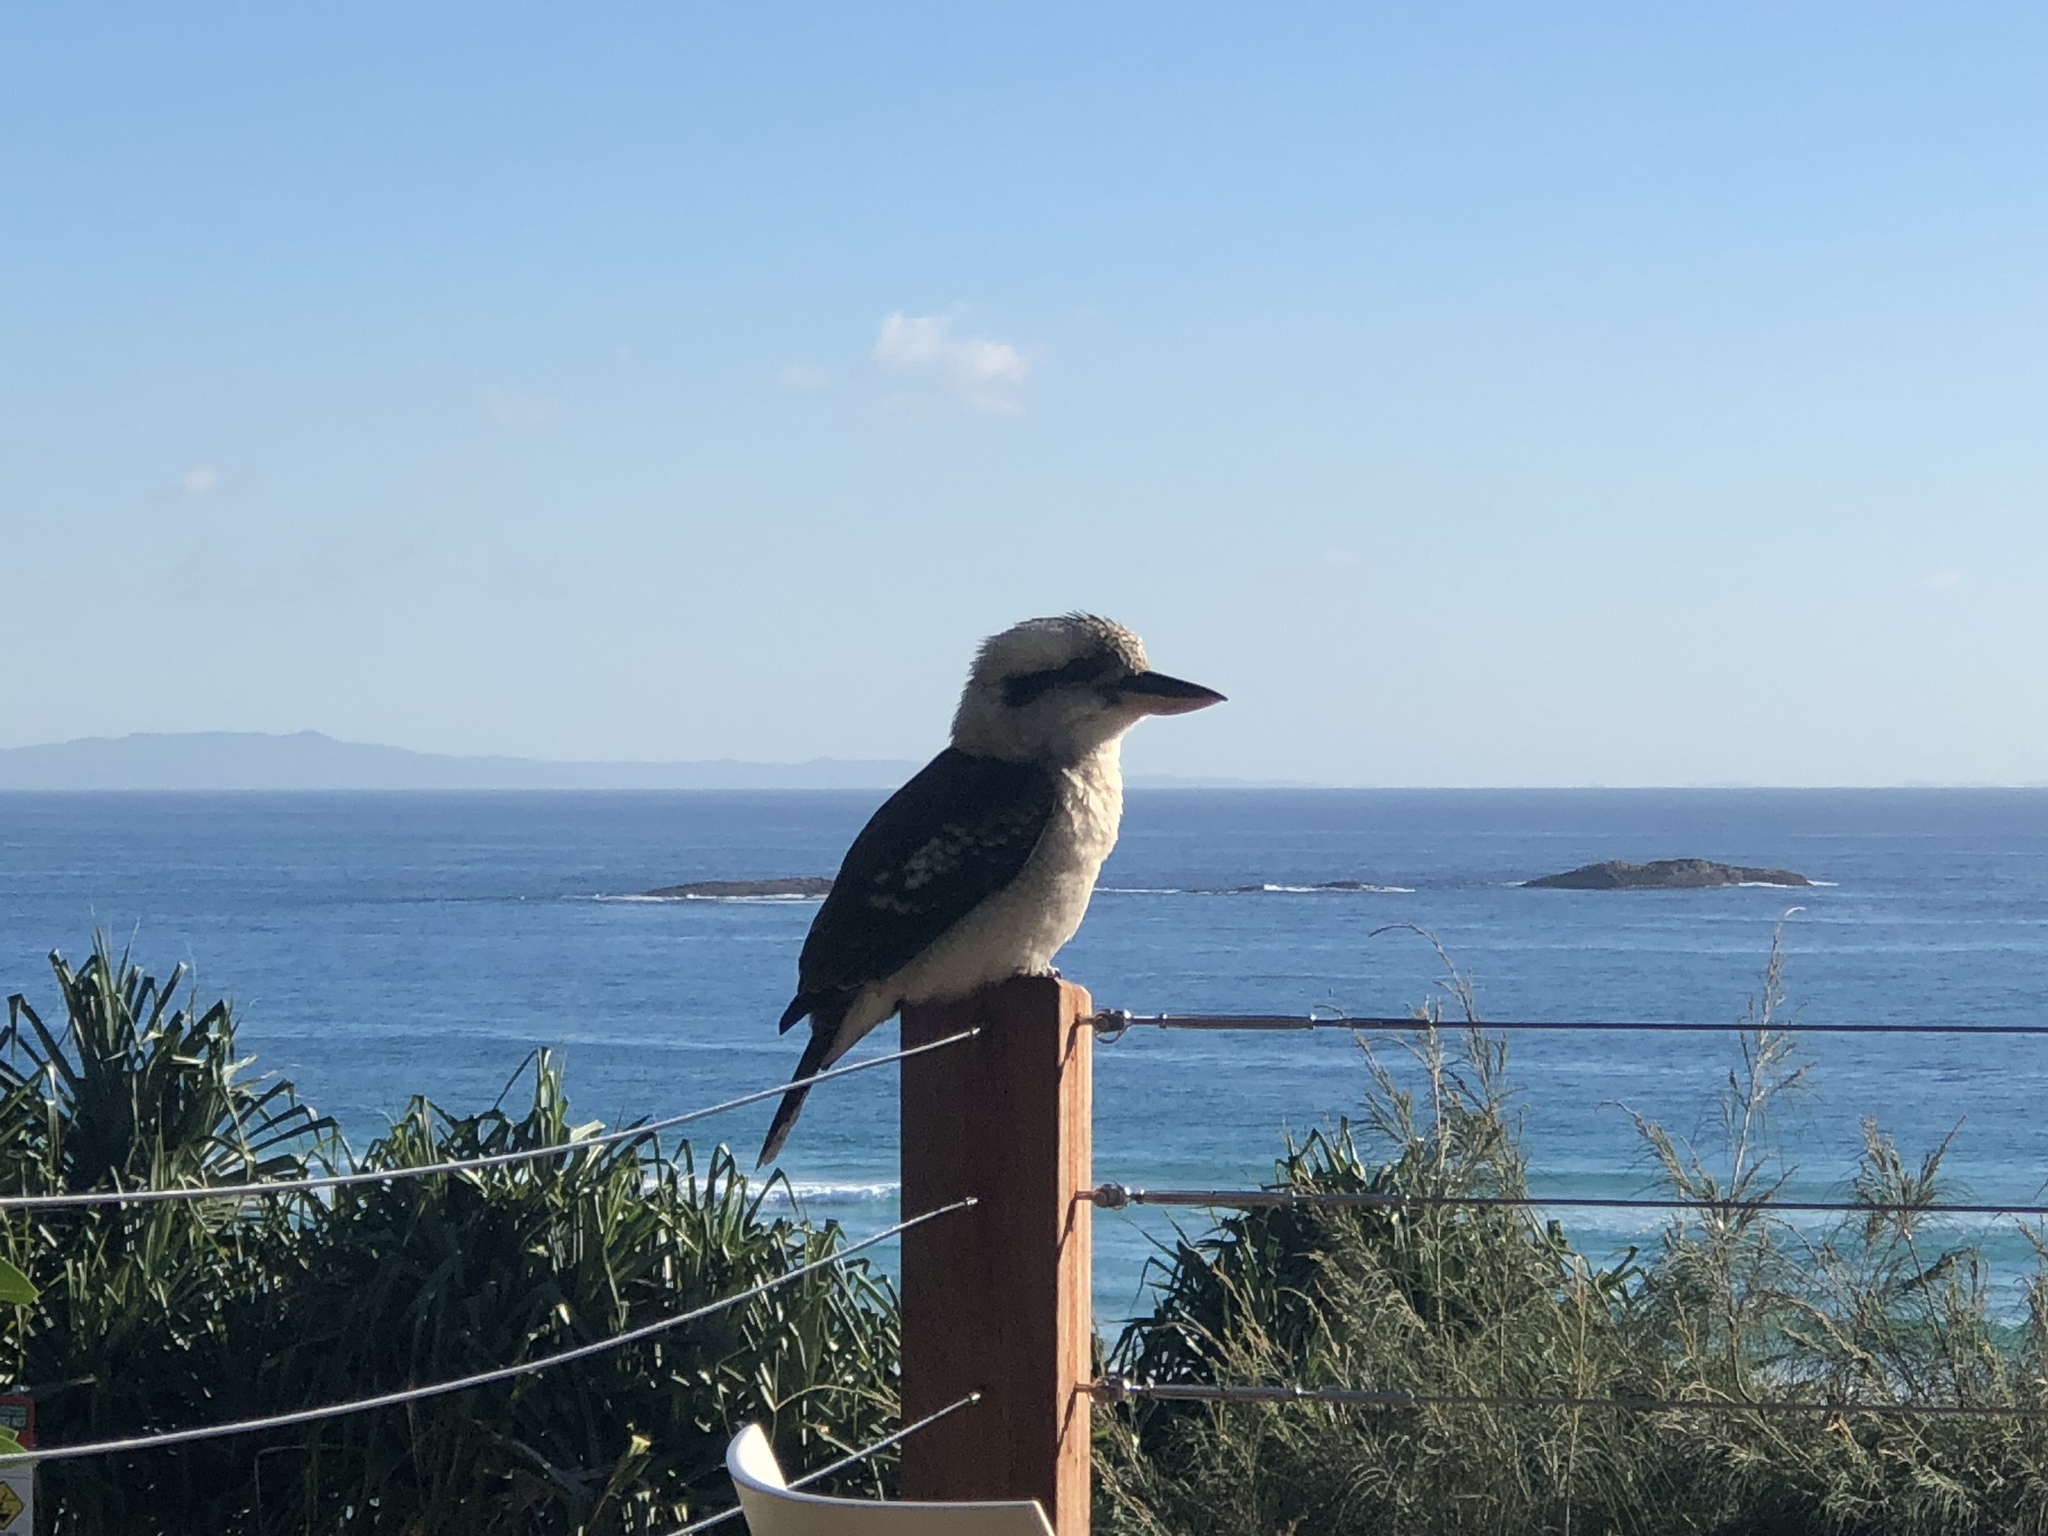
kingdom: Animalia
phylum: Chordata
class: Aves
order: Coraciiformes
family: Alcedinidae
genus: Dacelo
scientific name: Dacelo novaeguineae
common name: Laughing kookaburra
